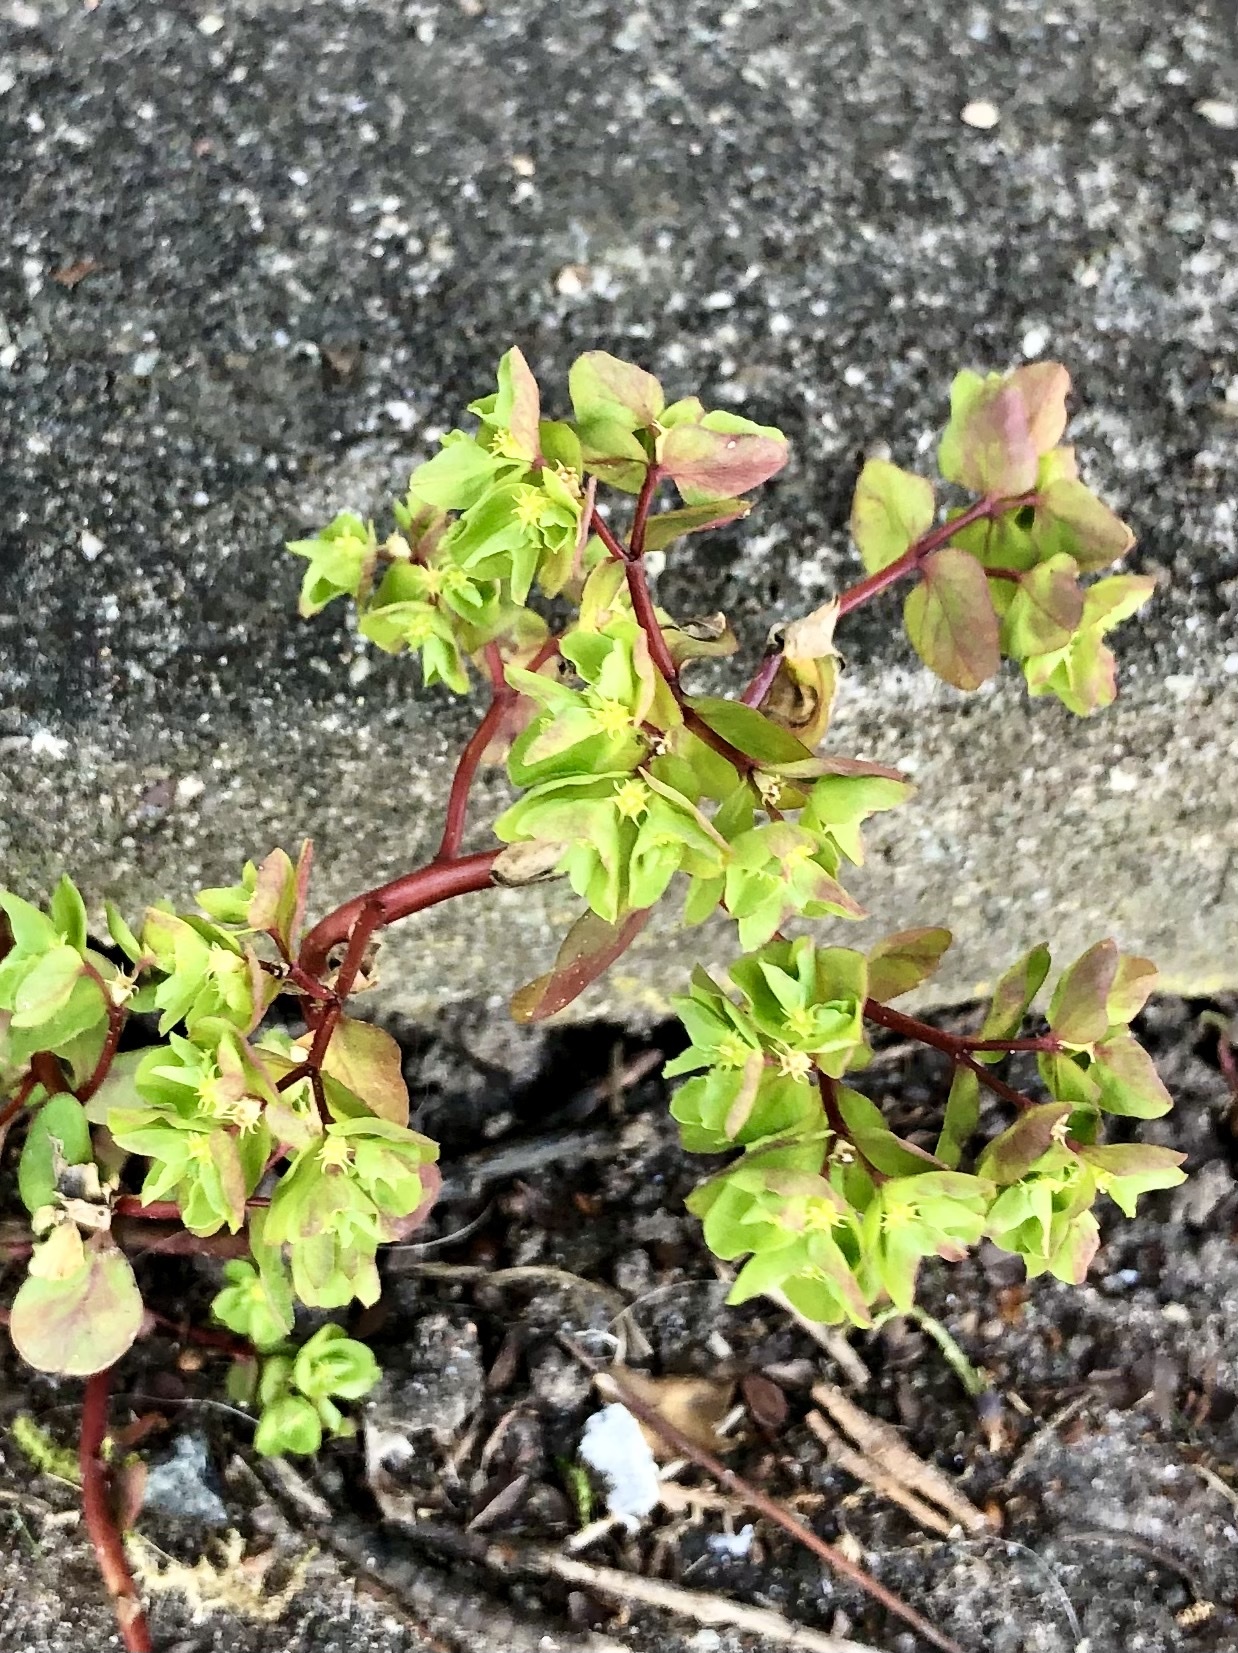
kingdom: Plantae
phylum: Tracheophyta
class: Magnoliopsida
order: Malpighiales
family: Euphorbiaceae
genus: Euphorbia
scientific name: Euphorbia peplus
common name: Petty spurge
